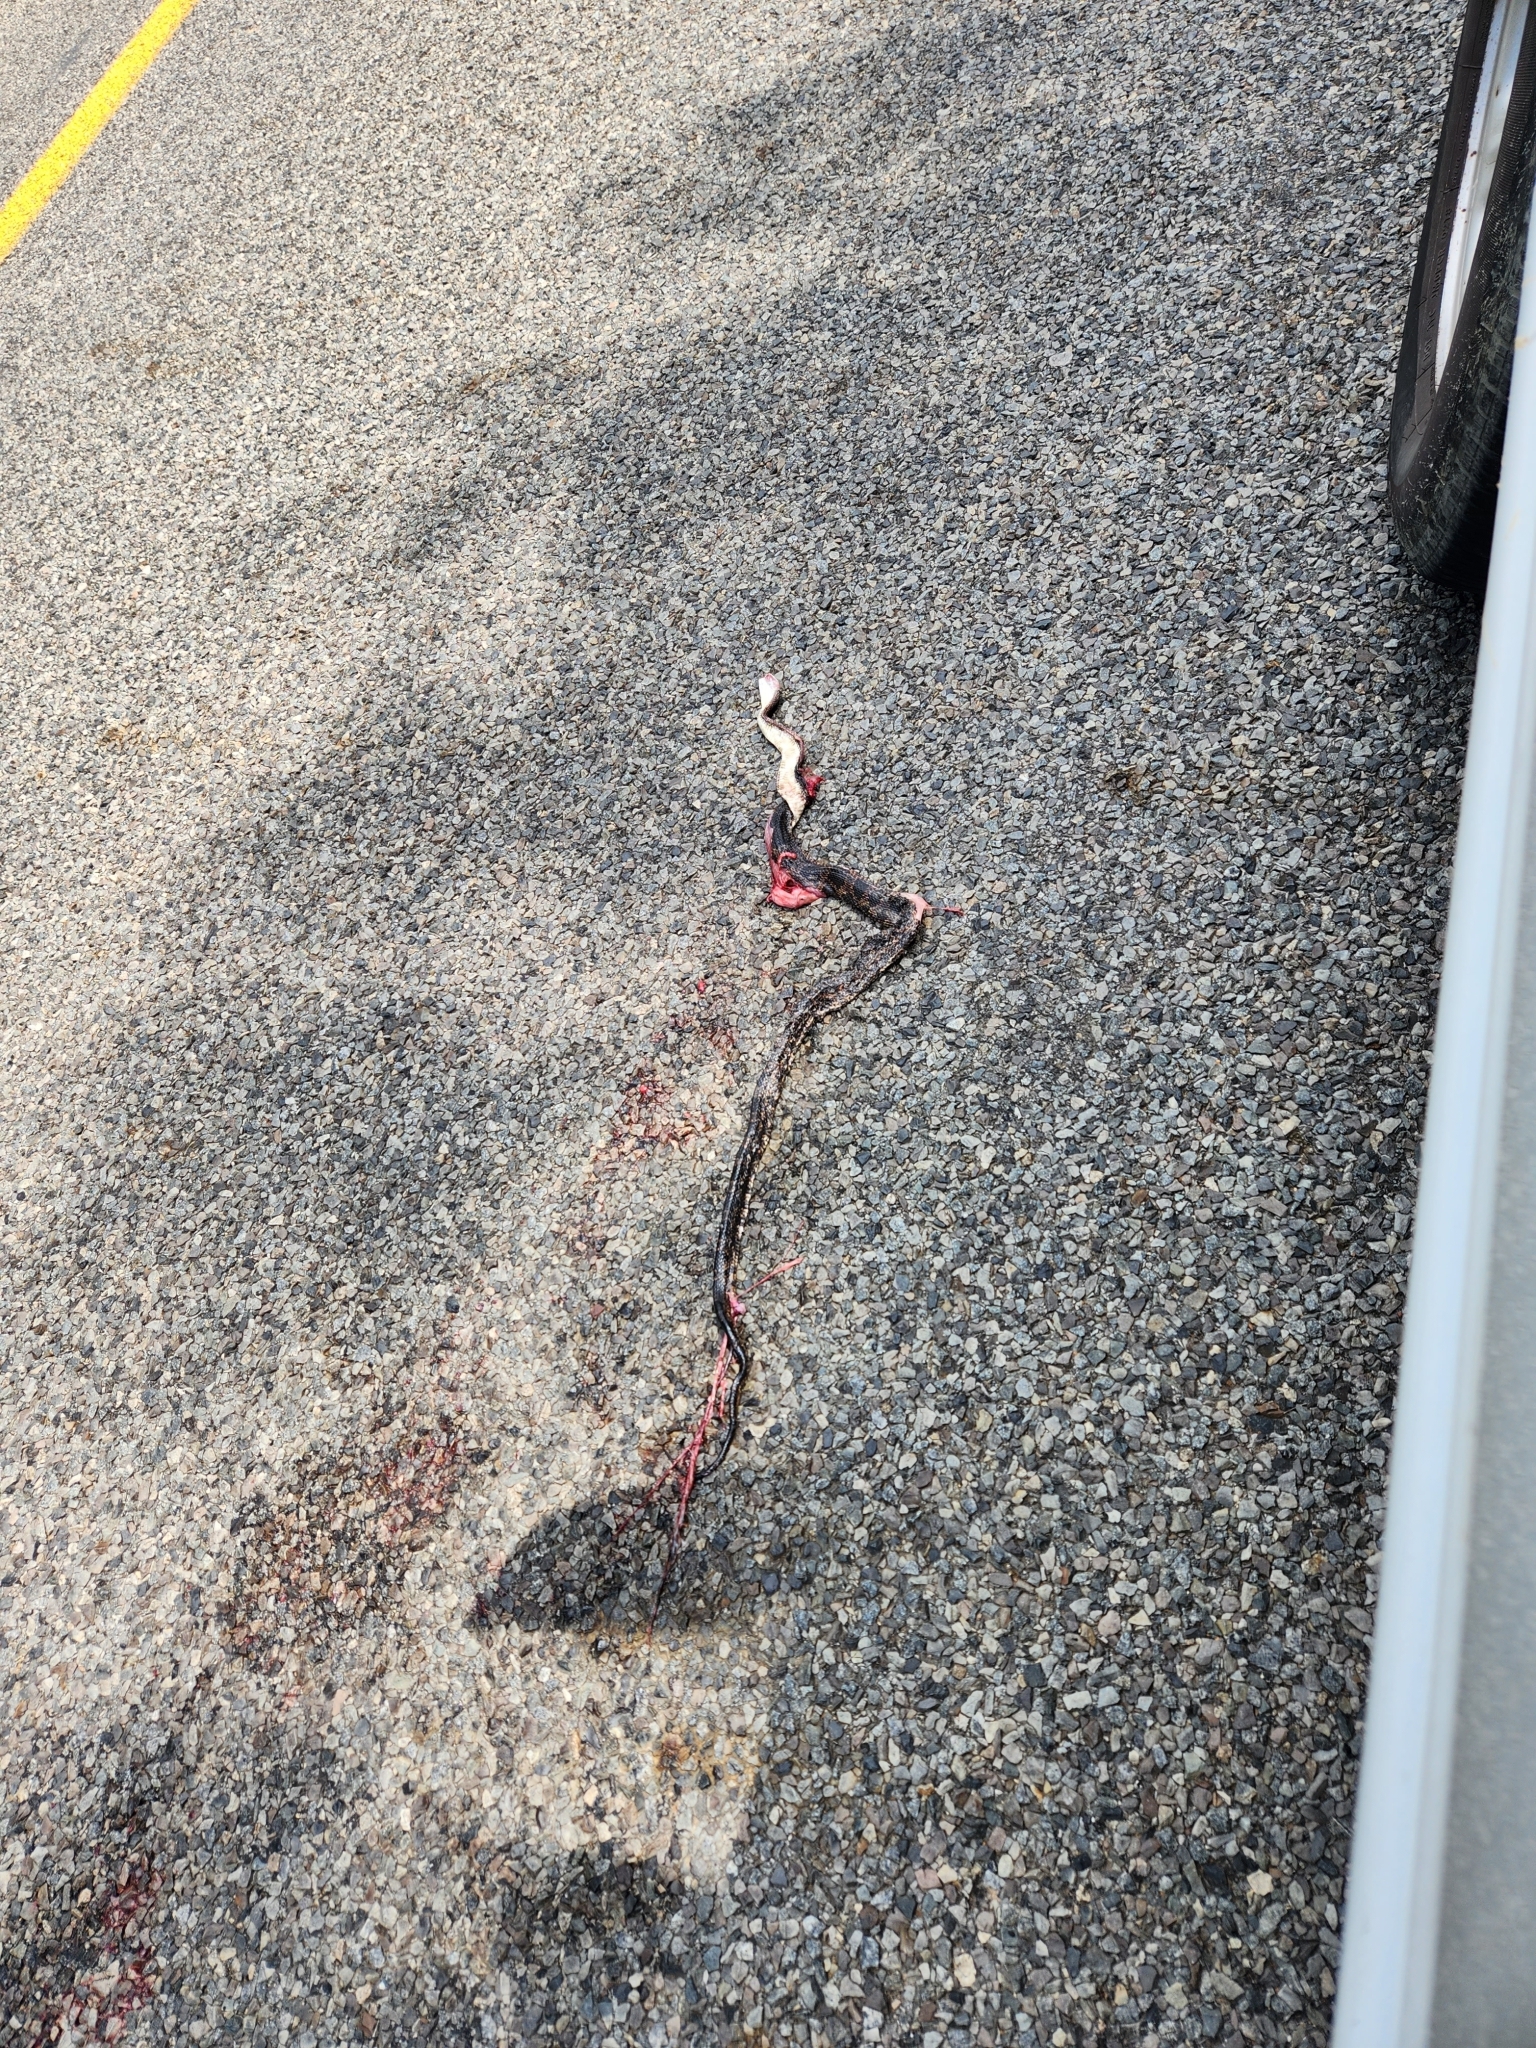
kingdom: Animalia
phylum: Chordata
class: Squamata
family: Colubridae
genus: Pantherophis
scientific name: Pantherophis obsoletus
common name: Black rat snake
